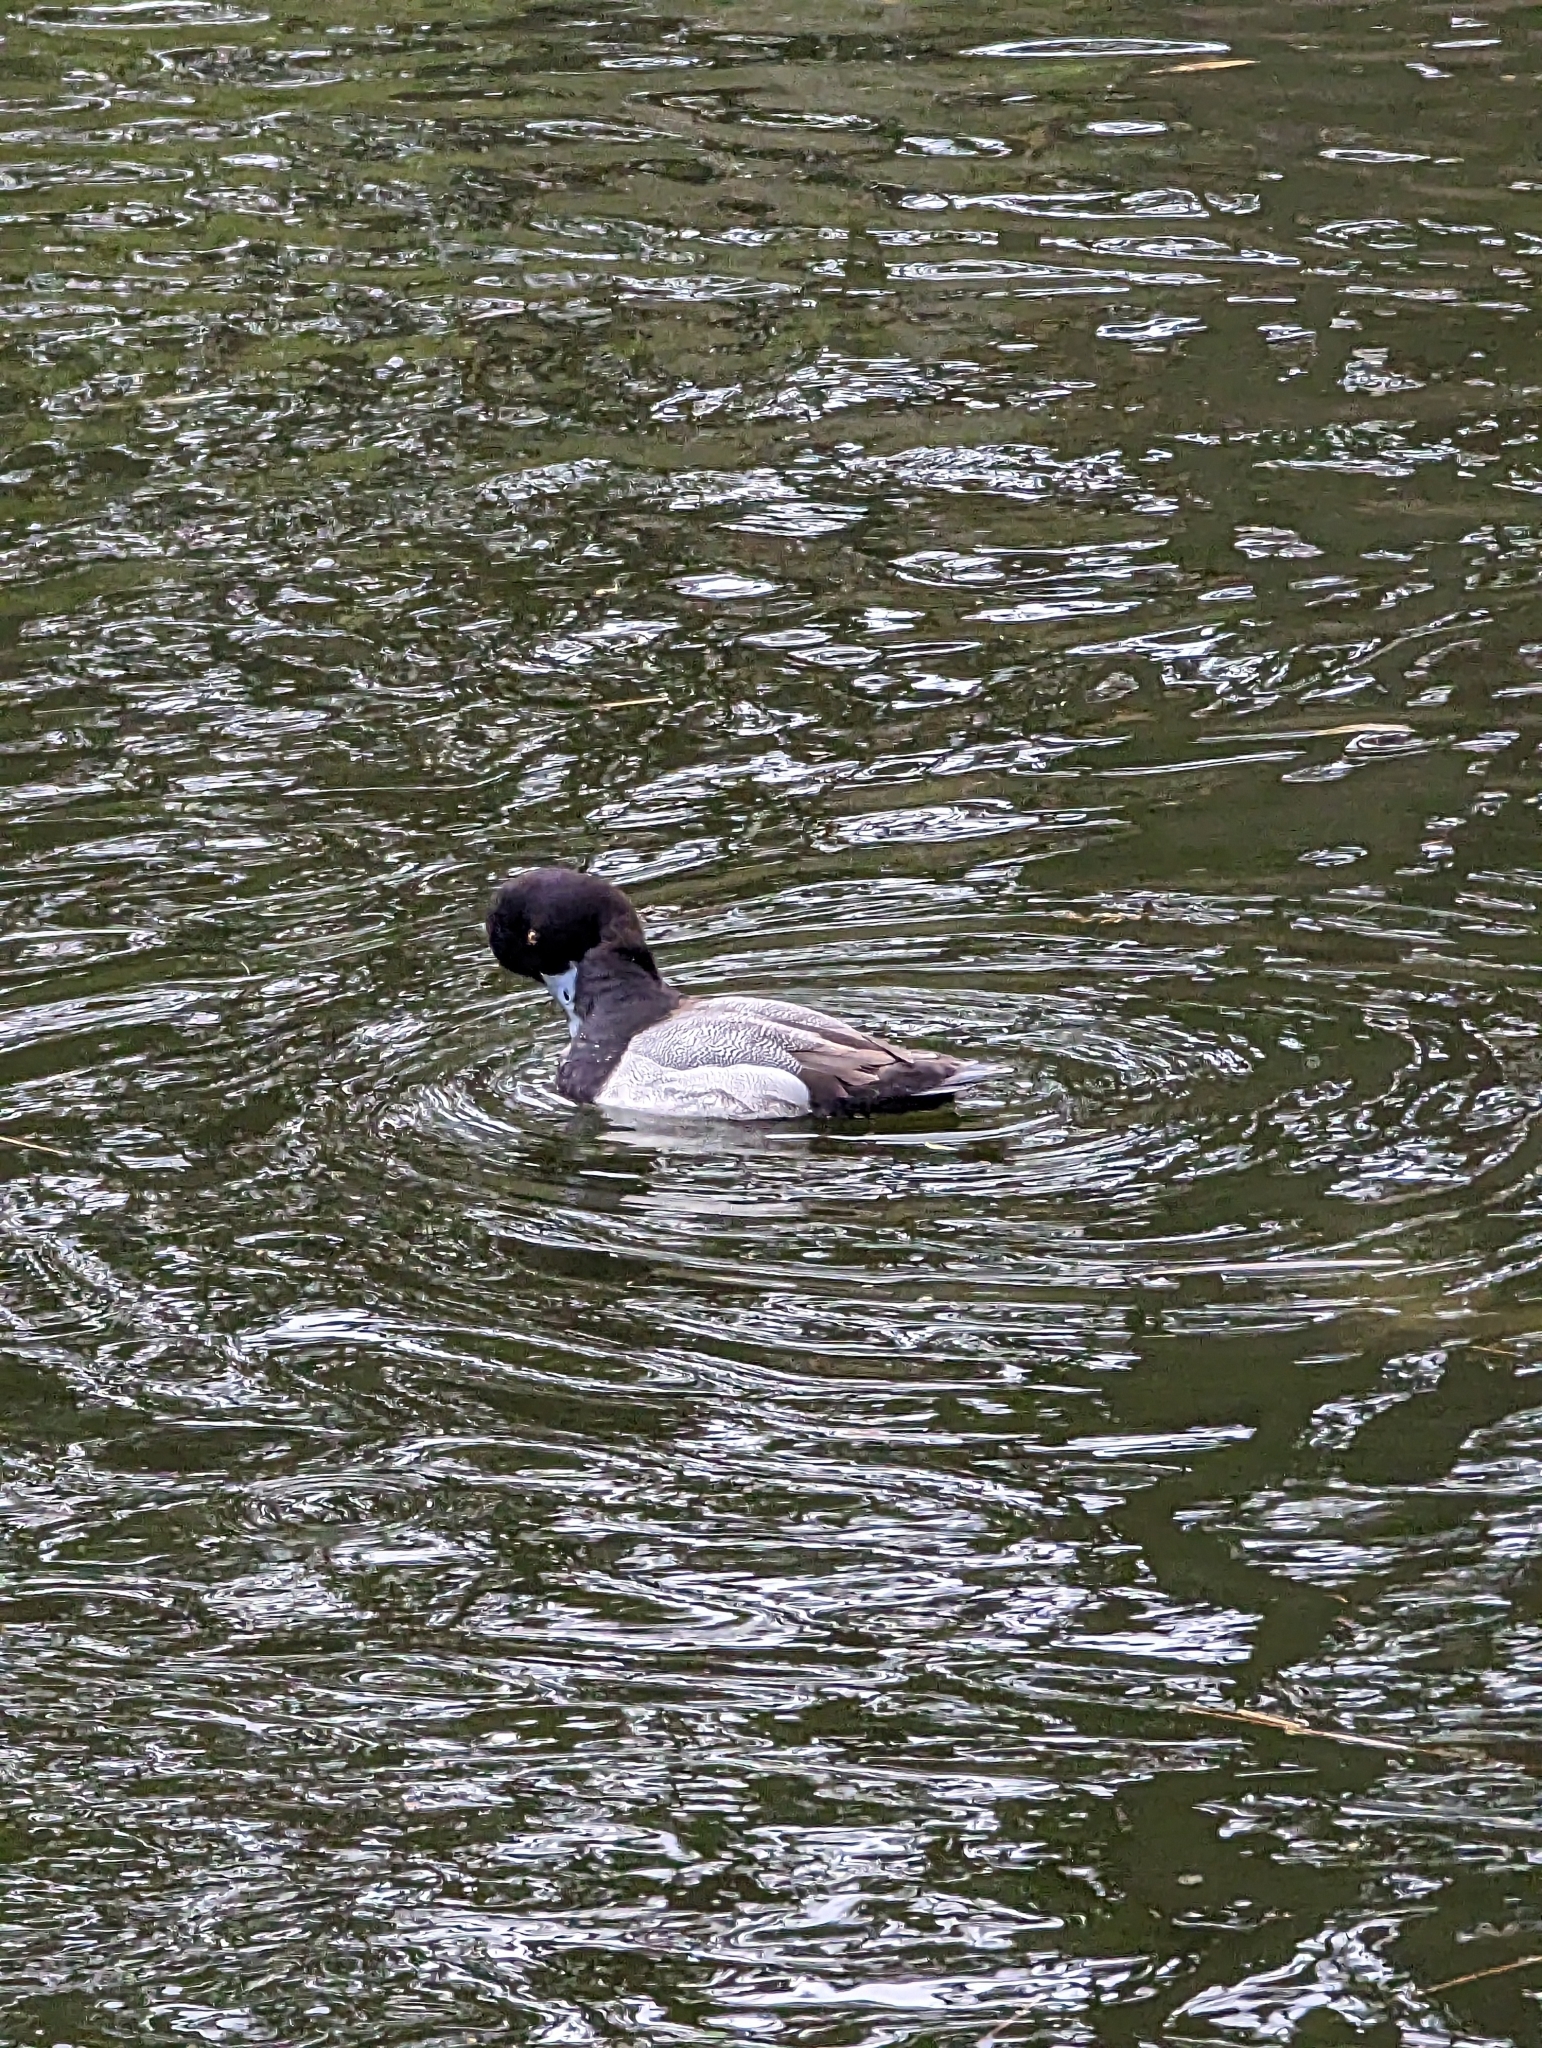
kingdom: Animalia
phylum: Chordata
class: Aves
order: Anseriformes
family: Anatidae
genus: Aythya
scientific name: Aythya affinis
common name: Lesser scaup
